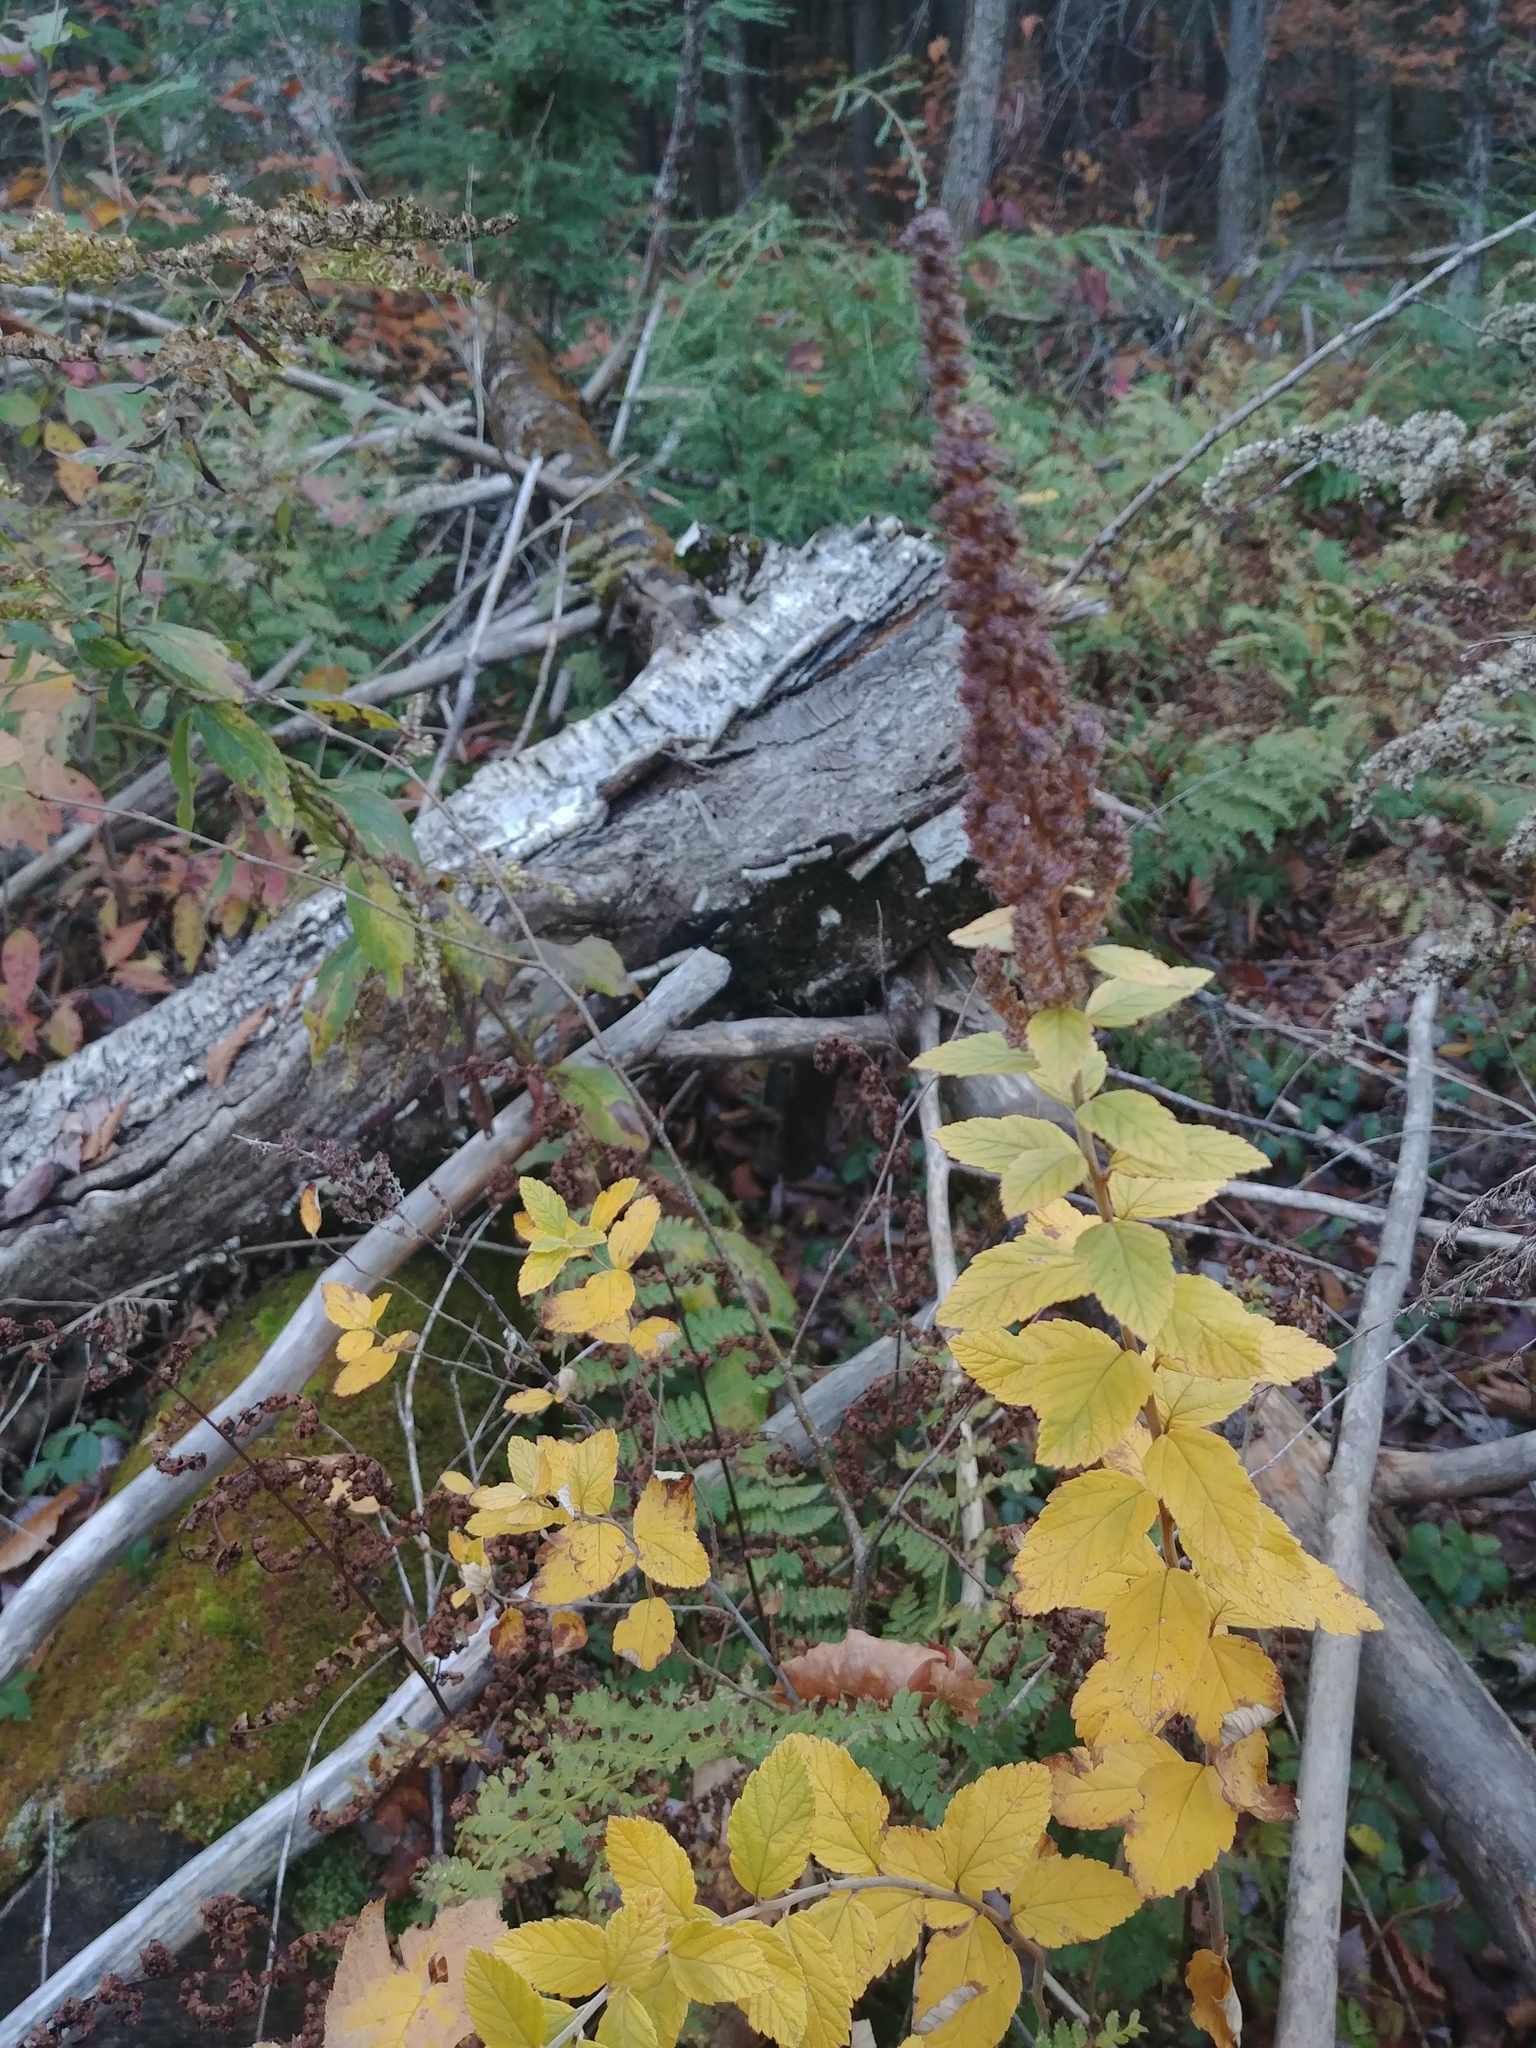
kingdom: Plantae
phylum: Tracheophyta
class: Magnoliopsida
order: Rosales
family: Rosaceae
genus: Spiraea
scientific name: Spiraea tomentosa
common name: Hardhack
